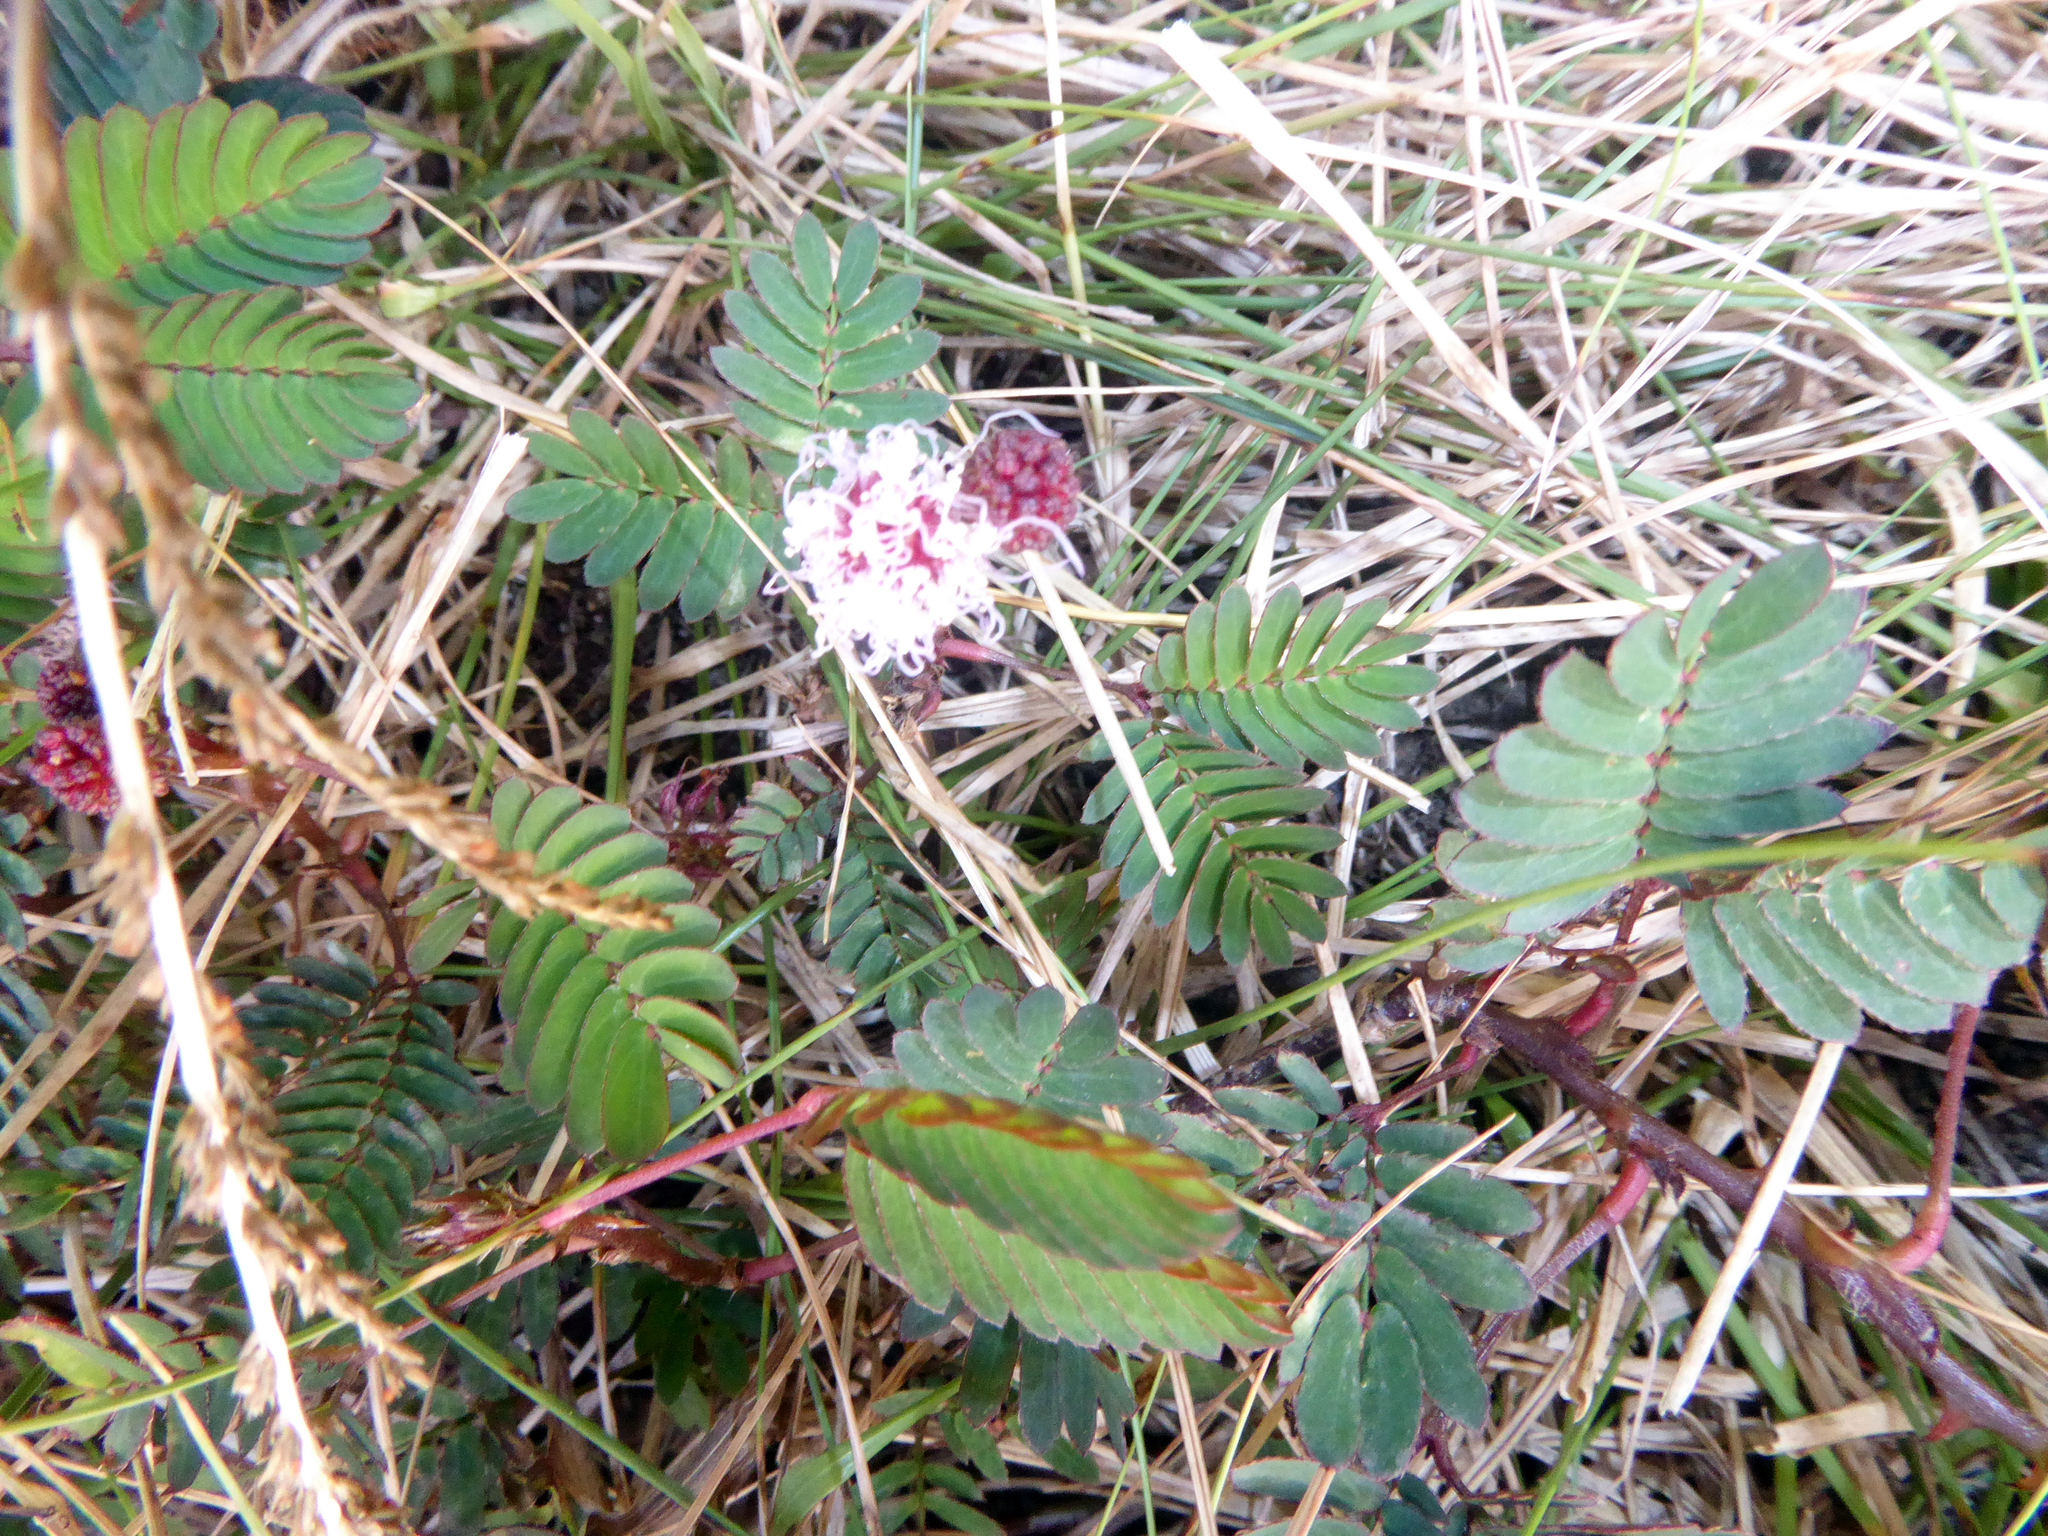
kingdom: Plantae
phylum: Tracheophyta
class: Magnoliopsida
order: Fabales
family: Fabaceae
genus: Mimosa
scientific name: Mimosa pudica
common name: Sensitive plant
